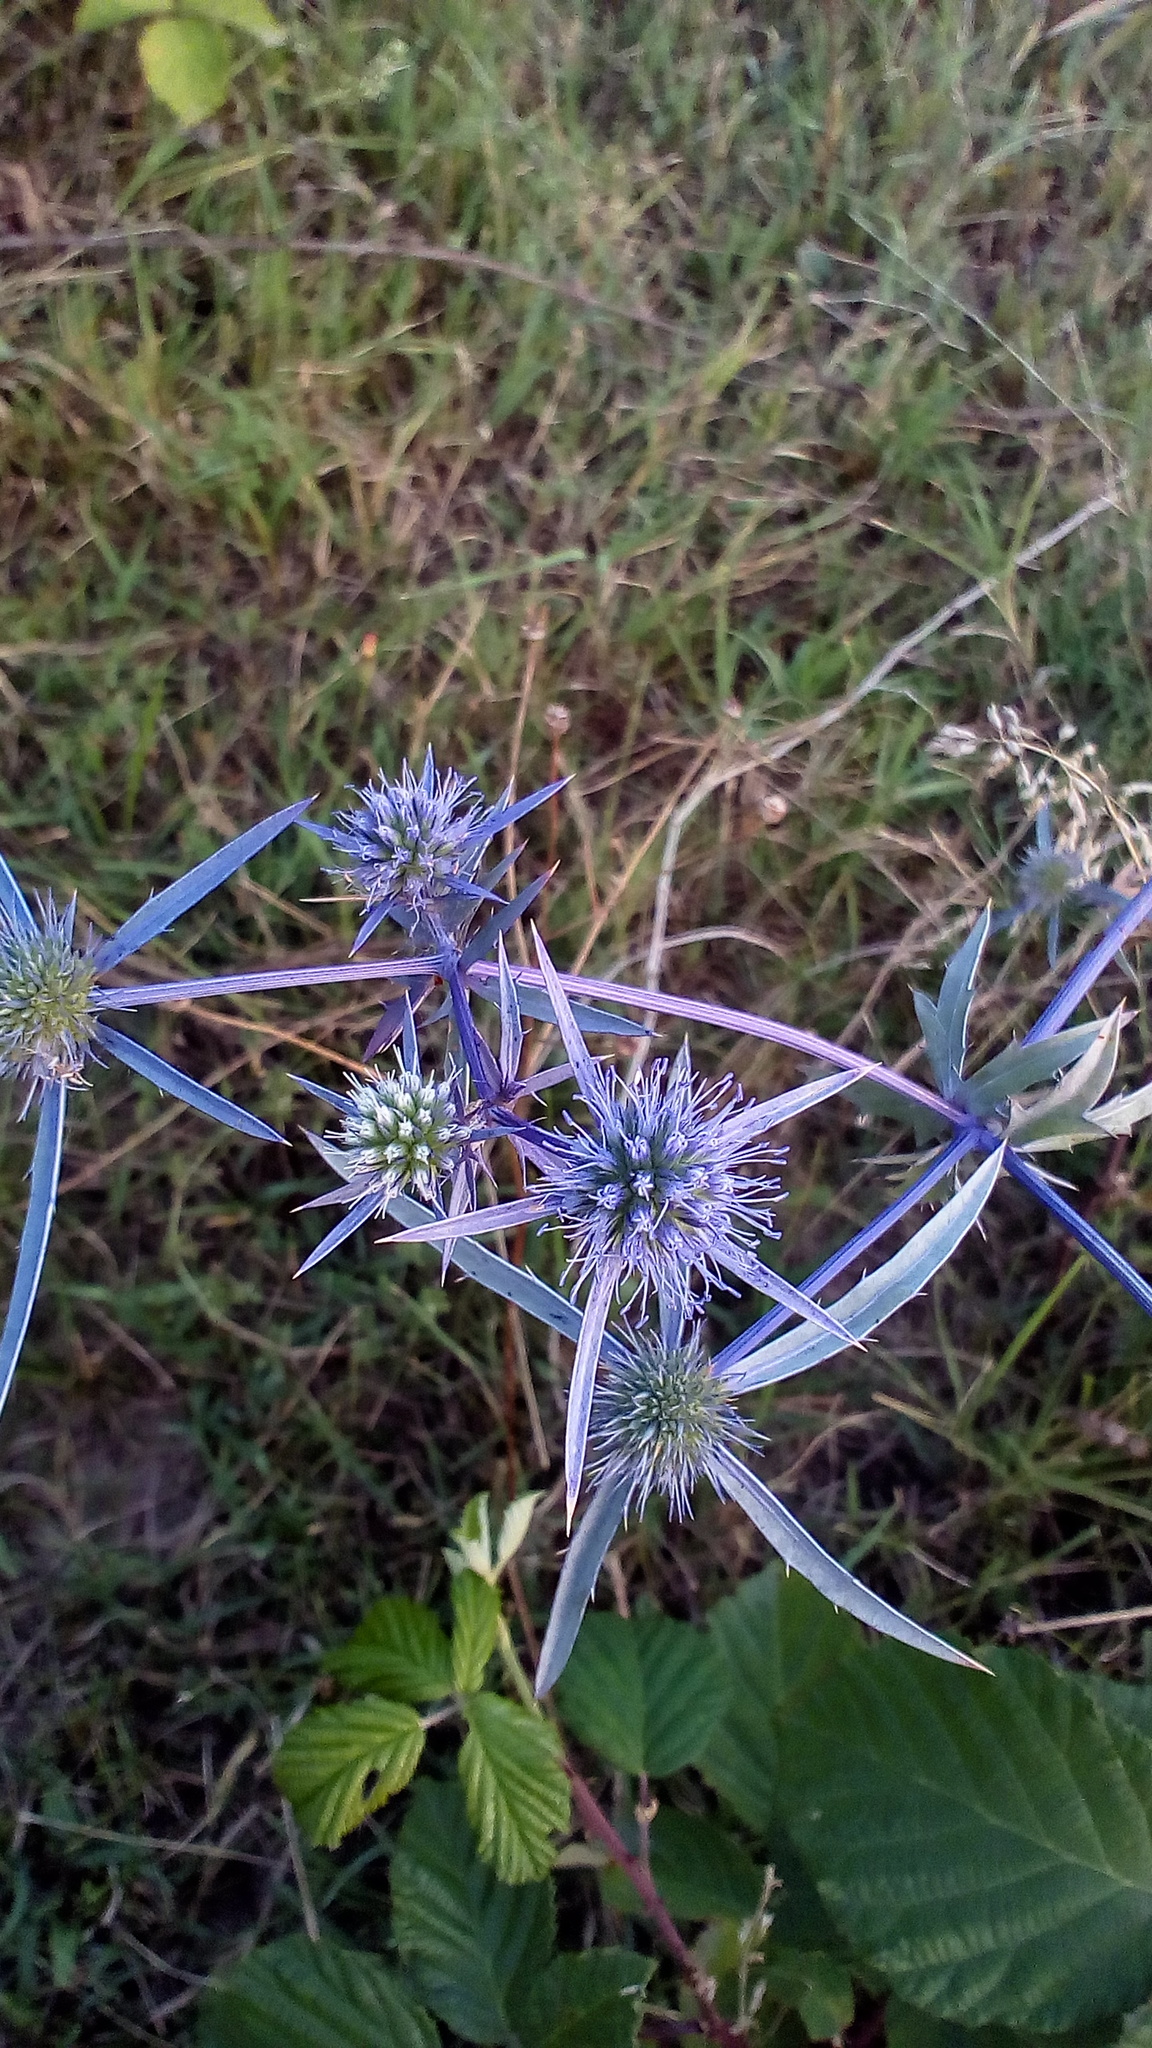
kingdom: Plantae
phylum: Tracheophyta
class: Magnoliopsida
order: Apiales
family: Apiaceae
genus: Eryngium
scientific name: Eryngium caeruleum
